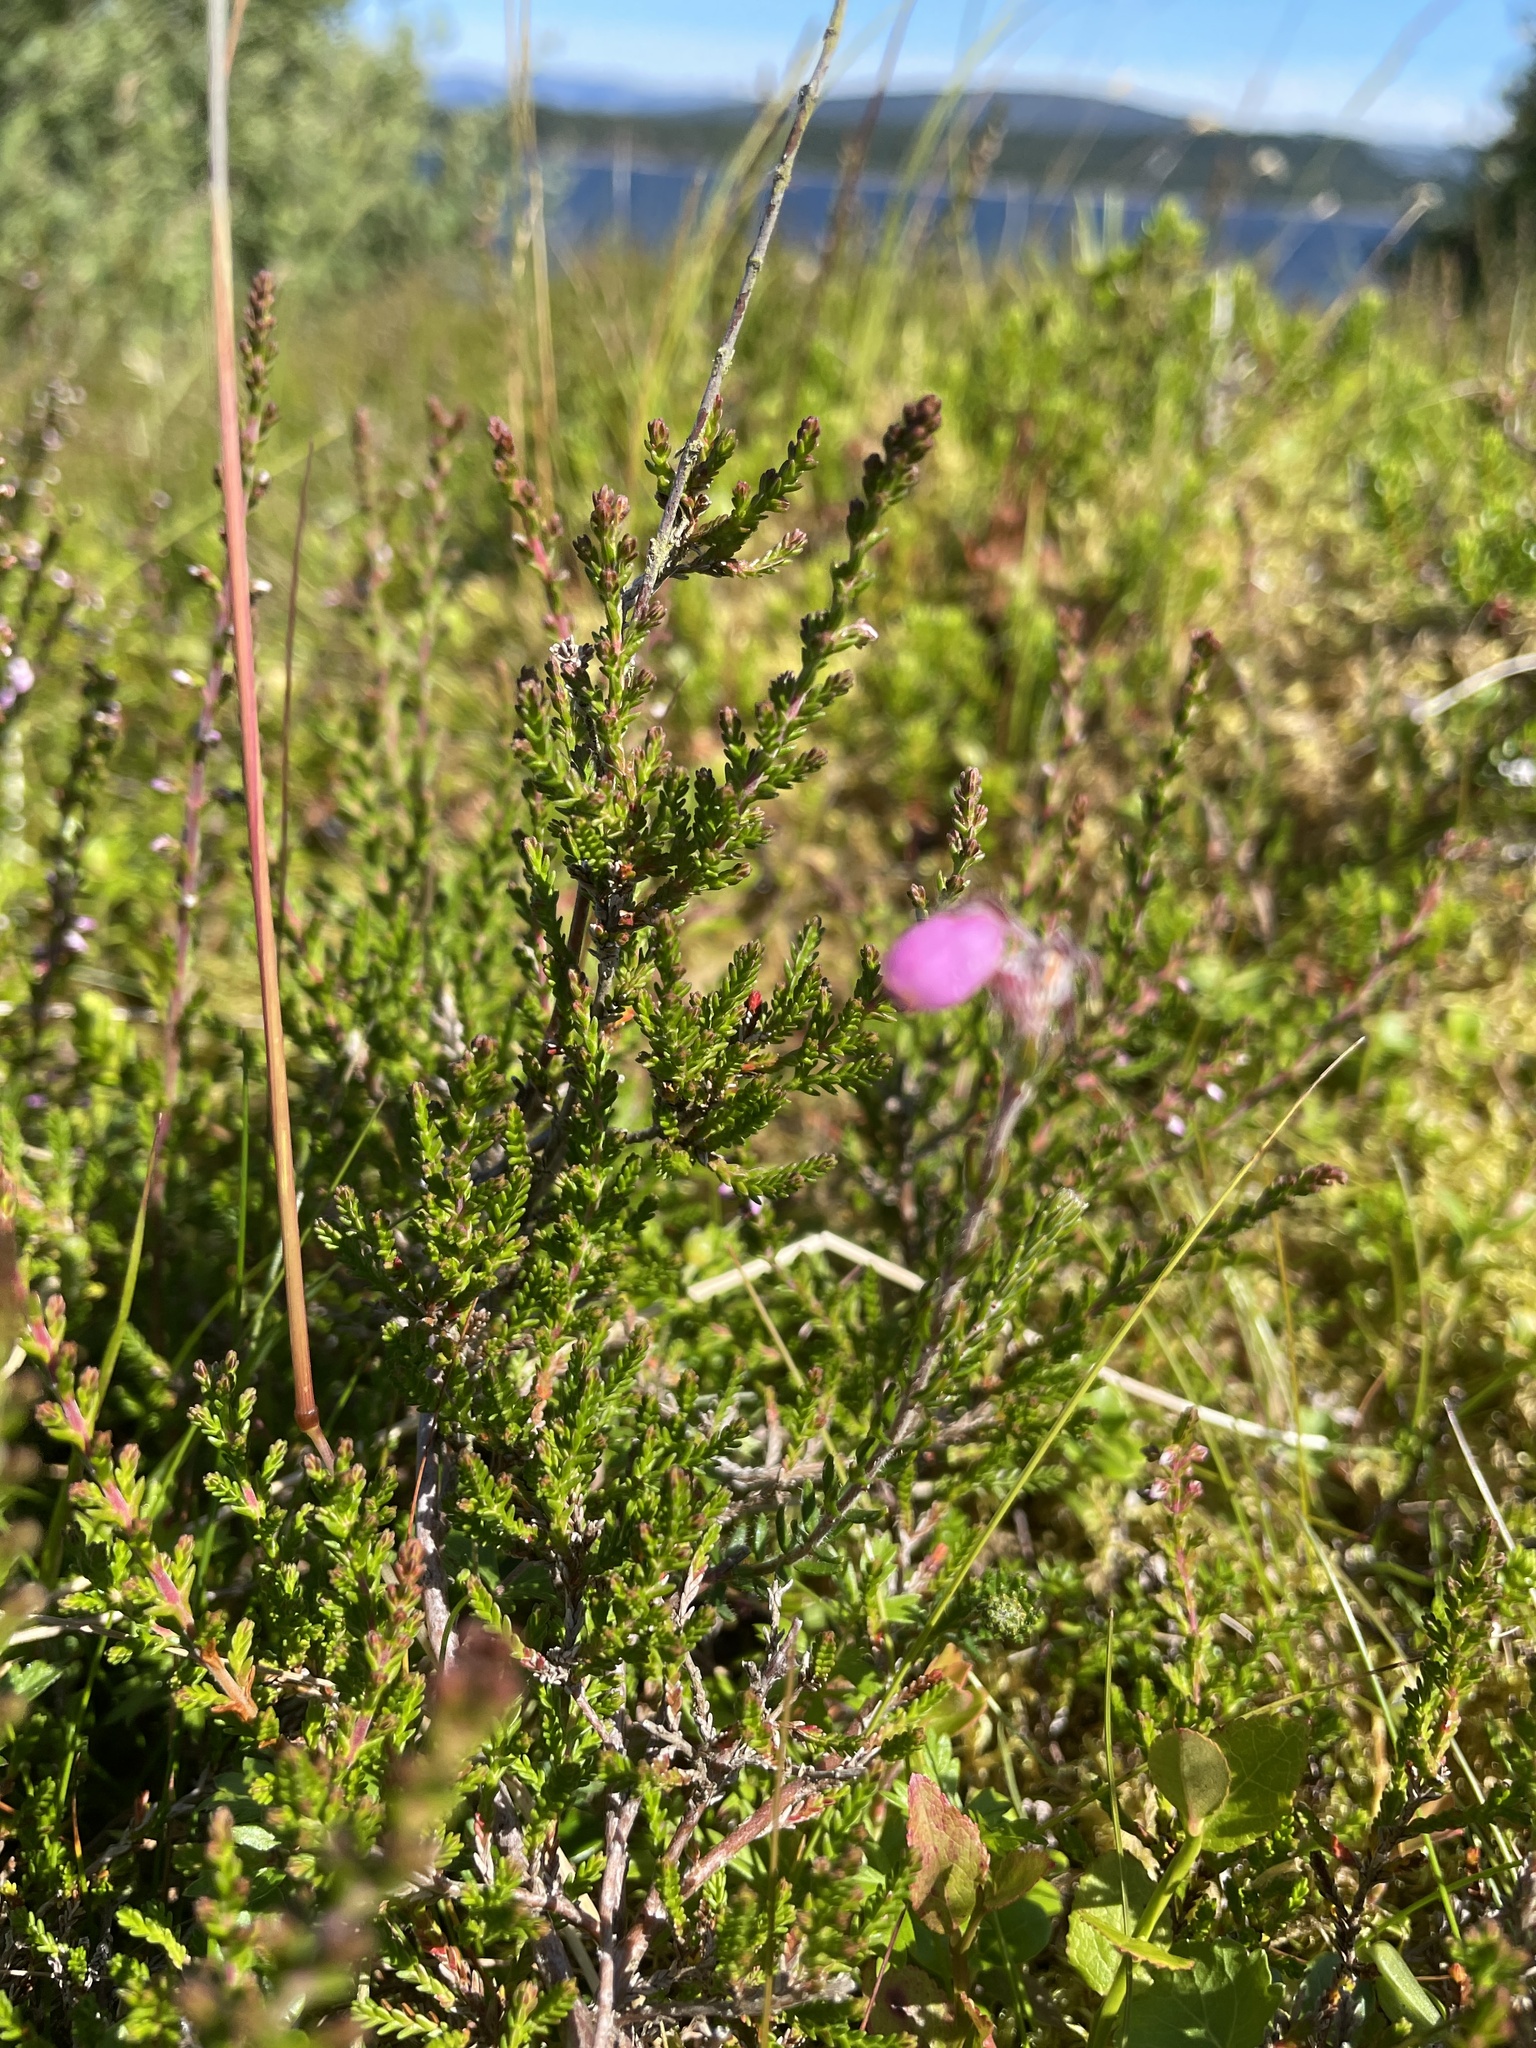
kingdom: Plantae
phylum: Tracheophyta
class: Magnoliopsida
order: Ericales
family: Ericaceae
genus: Erica
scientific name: Erica tetralix
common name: Cross-leaved heath
